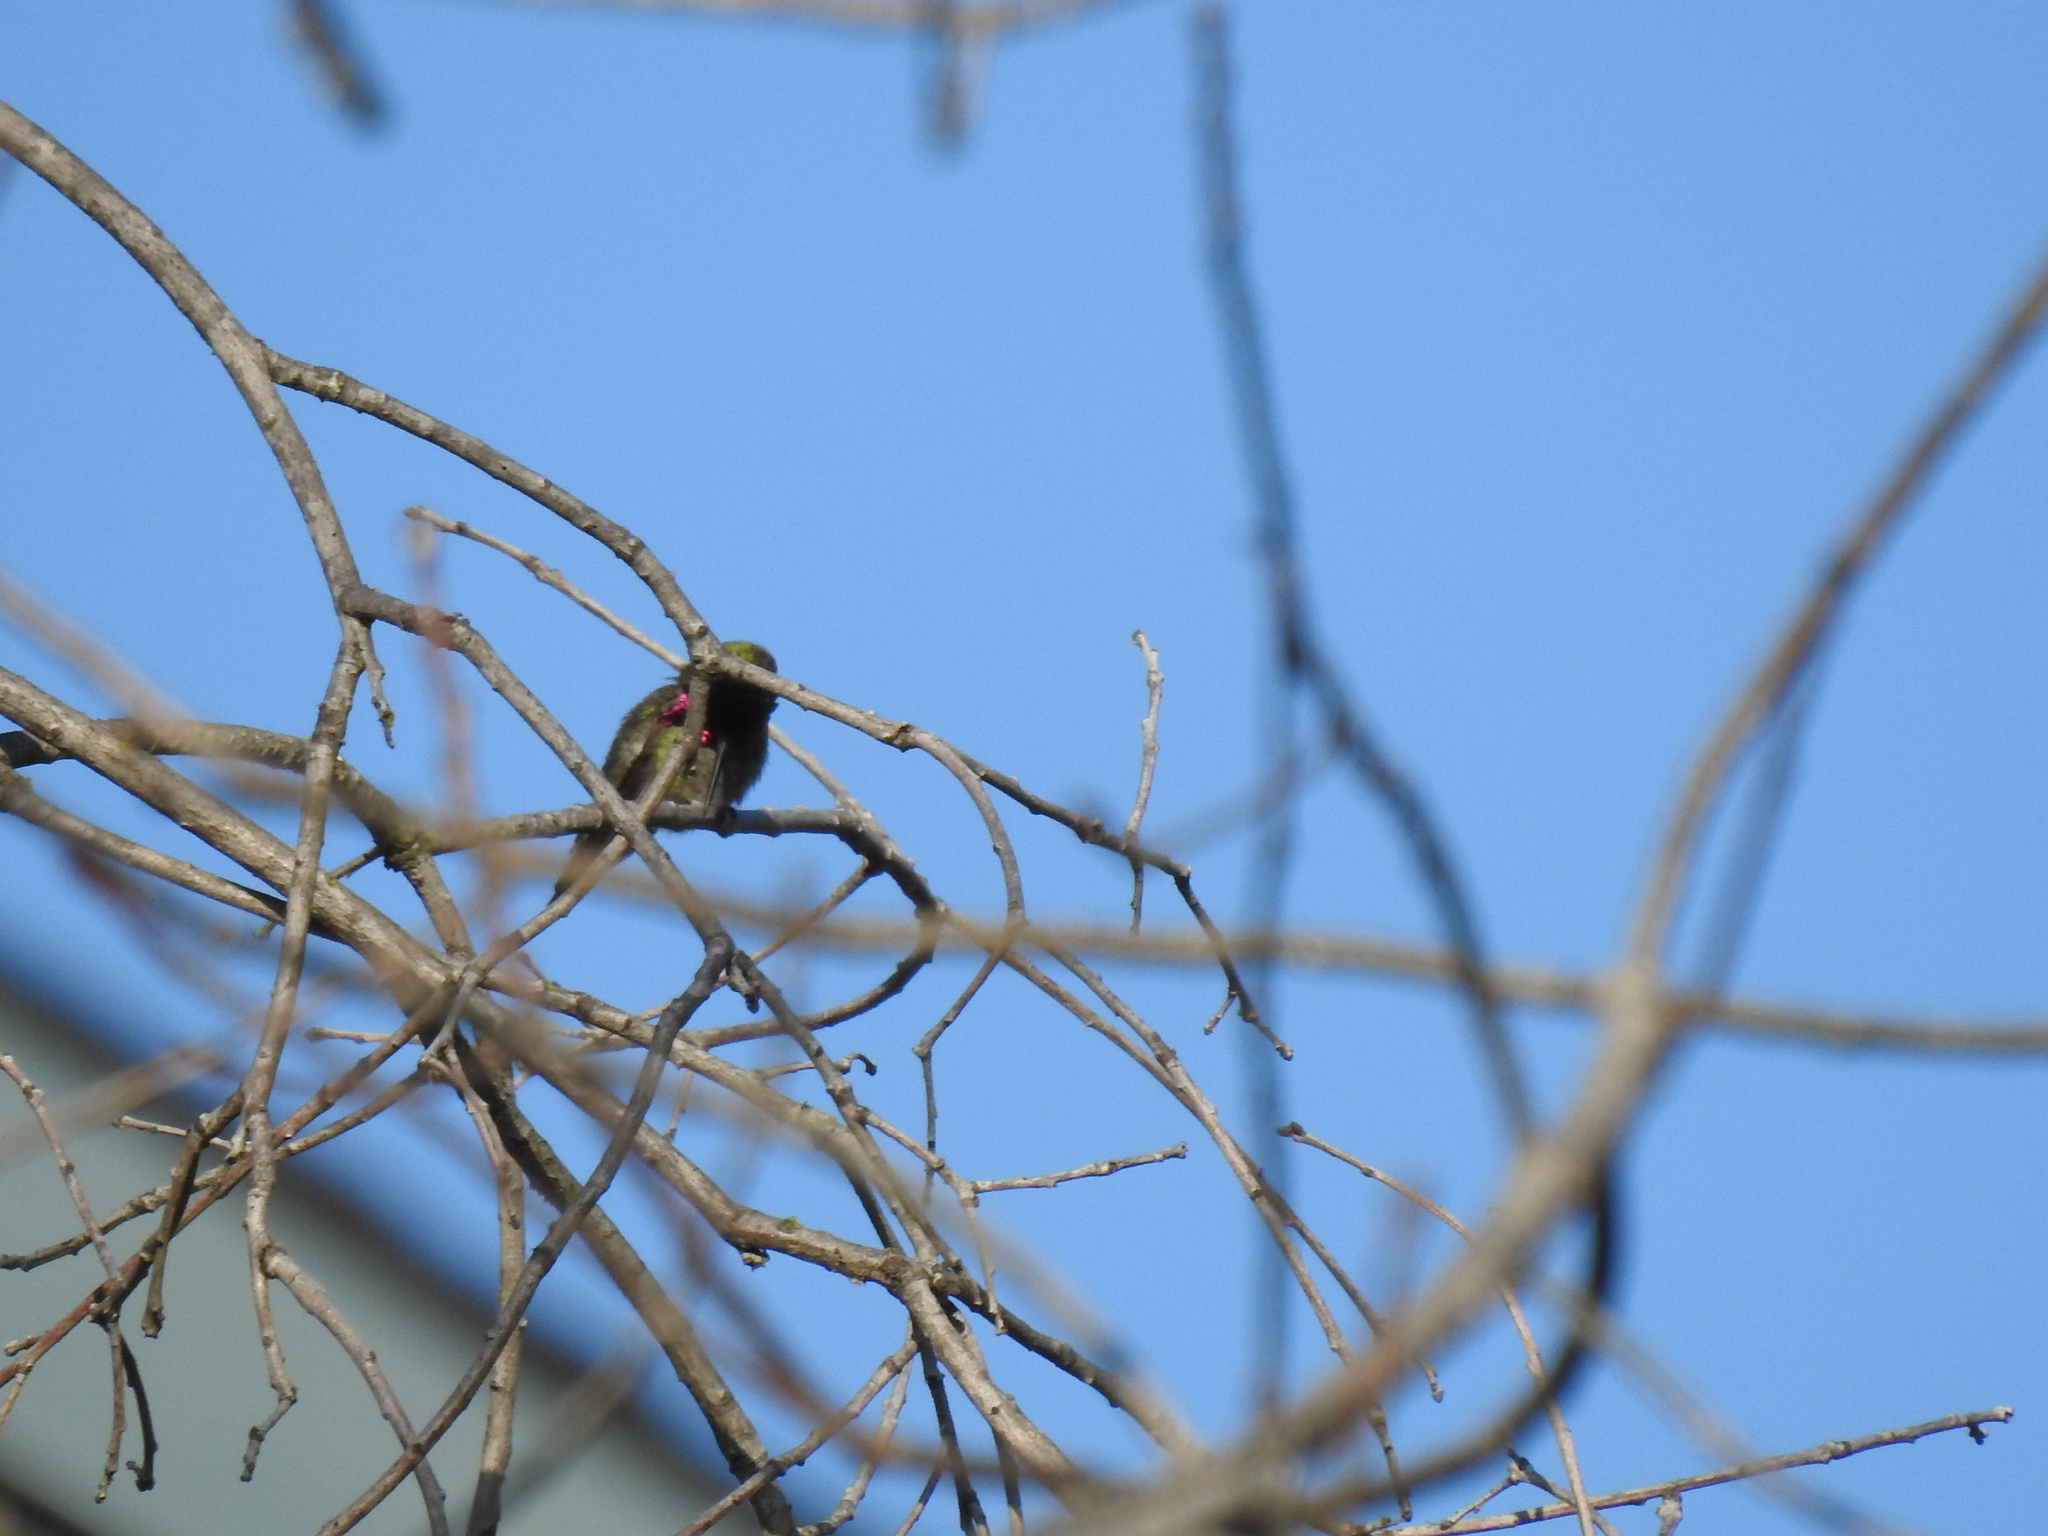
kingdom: Animalia
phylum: Chordata
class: Aves
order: Apodiformes
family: Trochilidae
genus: Calypte
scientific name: Calypte anna
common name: Anna's hummingbird
